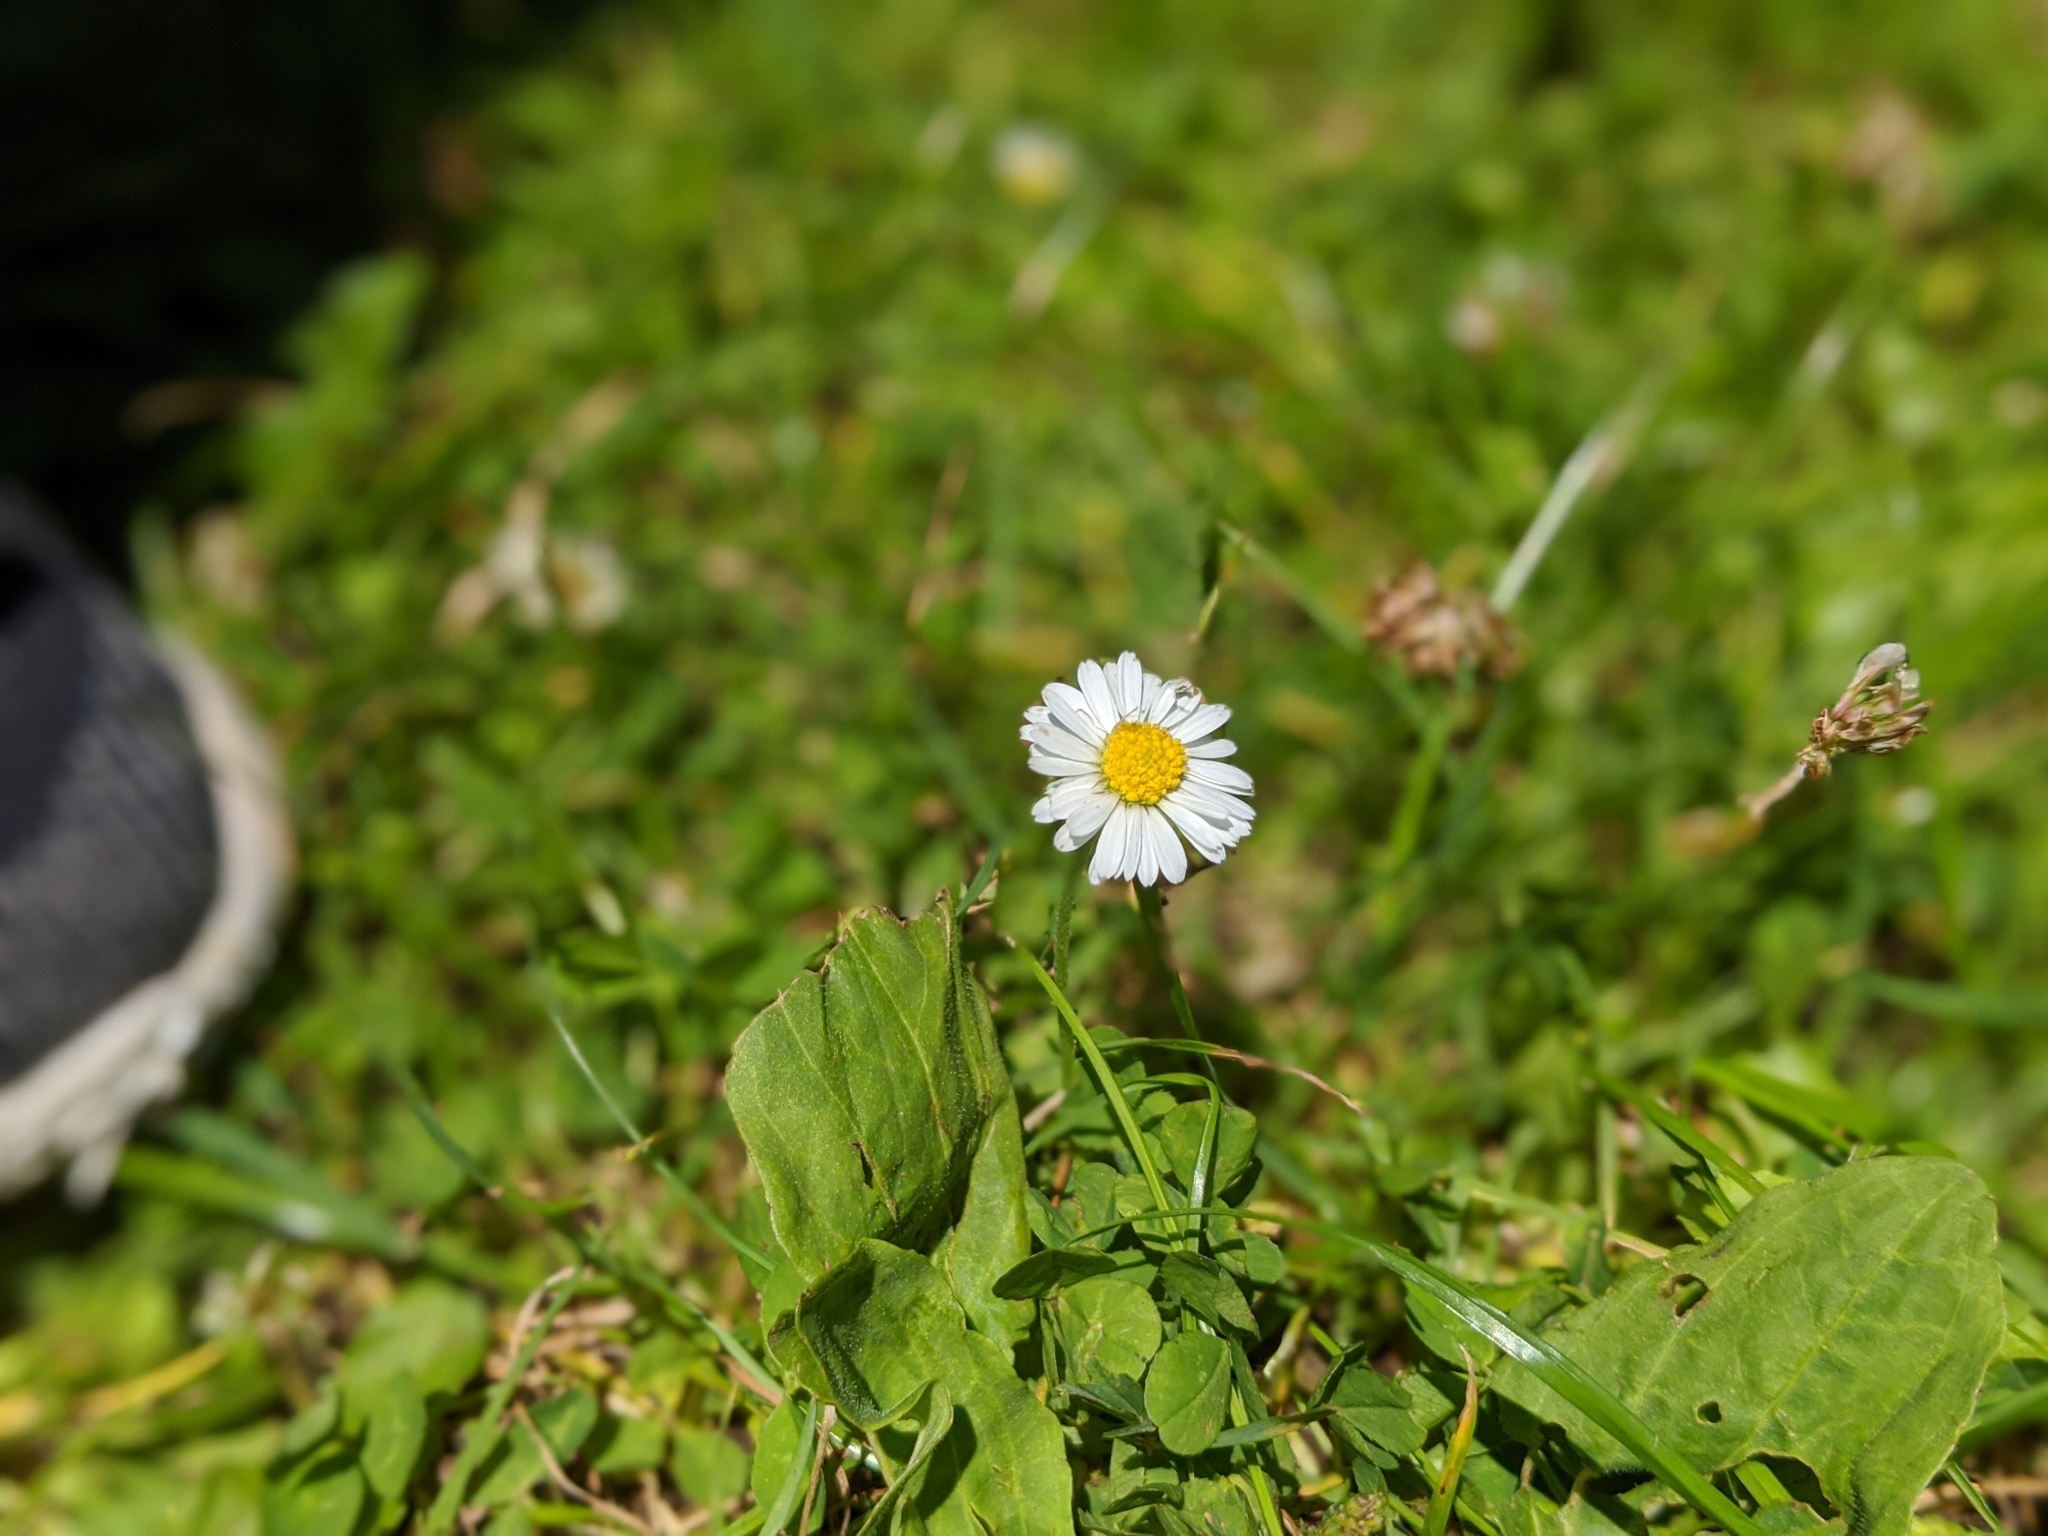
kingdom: Plantae
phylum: Tracheophyta
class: Magnoliopsida
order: Asterales
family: Asteraceae
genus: Bellis
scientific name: Bellis perennis
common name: Lawndaisy
